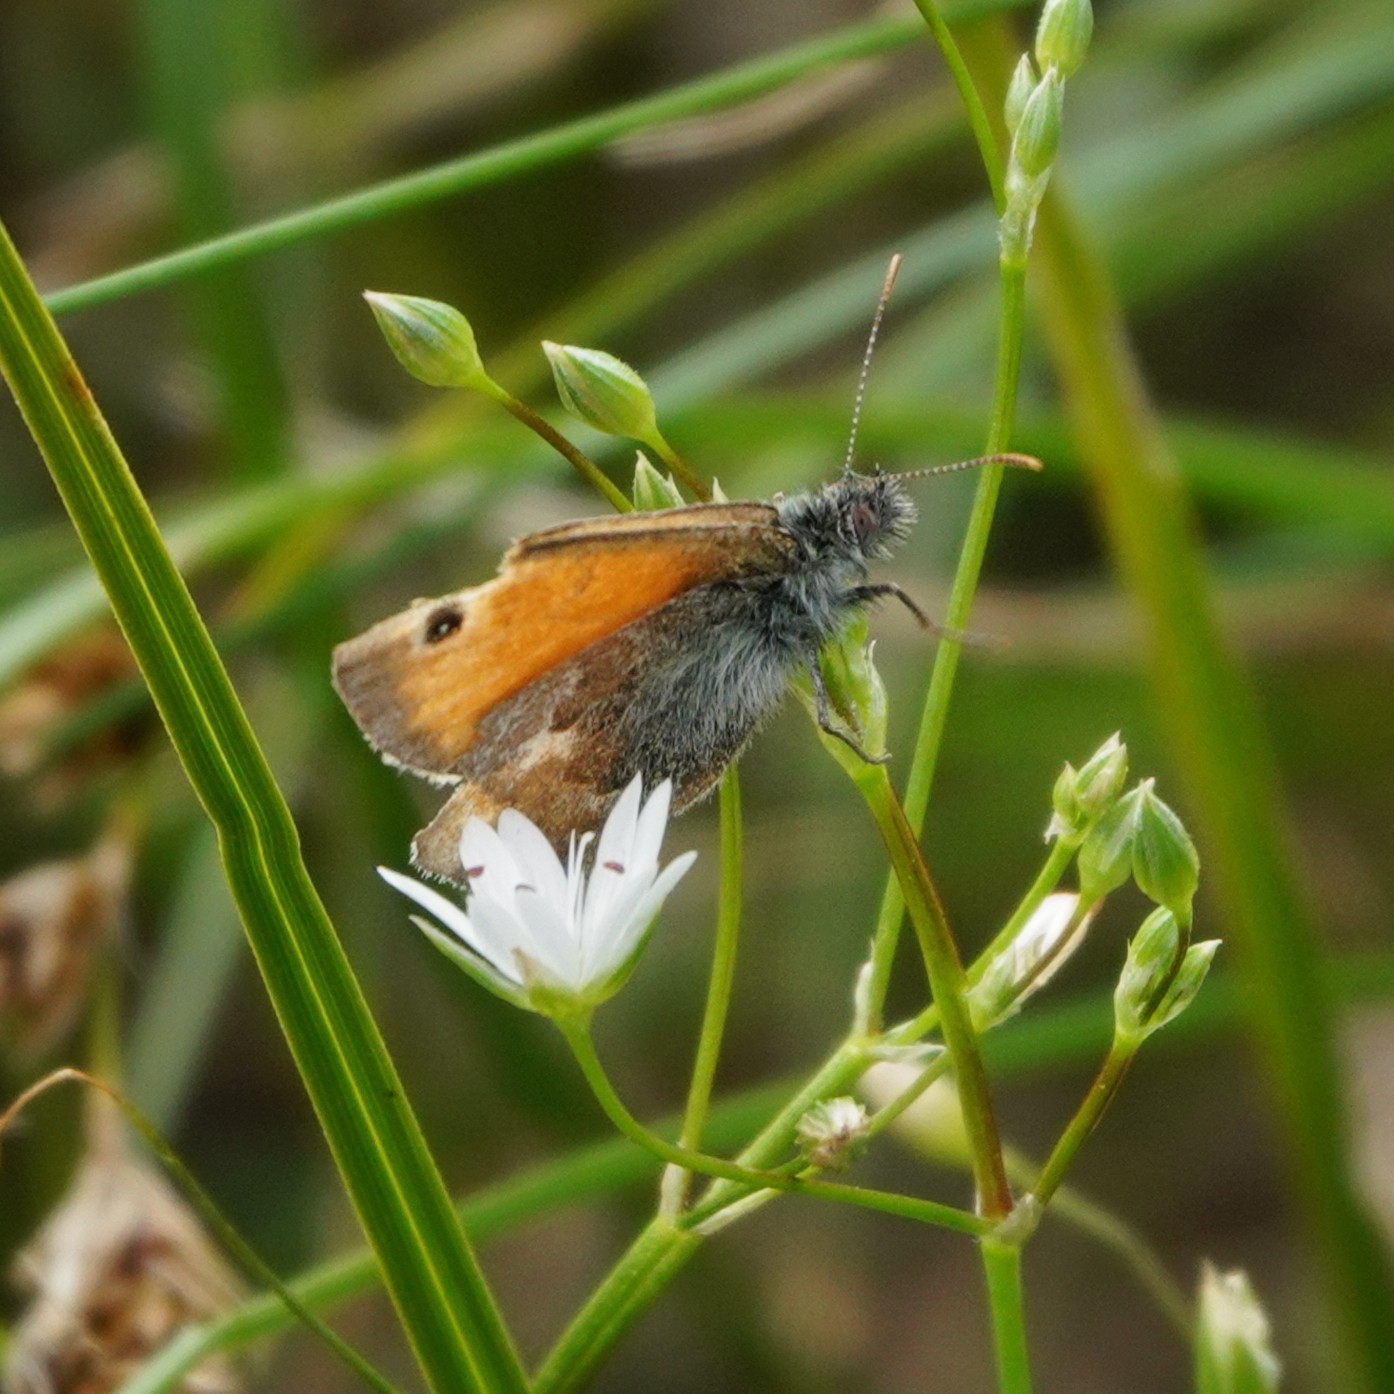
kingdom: Animalia
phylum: Arthropoda
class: Insecta
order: Lepidoptera
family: Nymphalidae
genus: Coenonympha
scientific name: Coenonympha pamphilus
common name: Small heath
